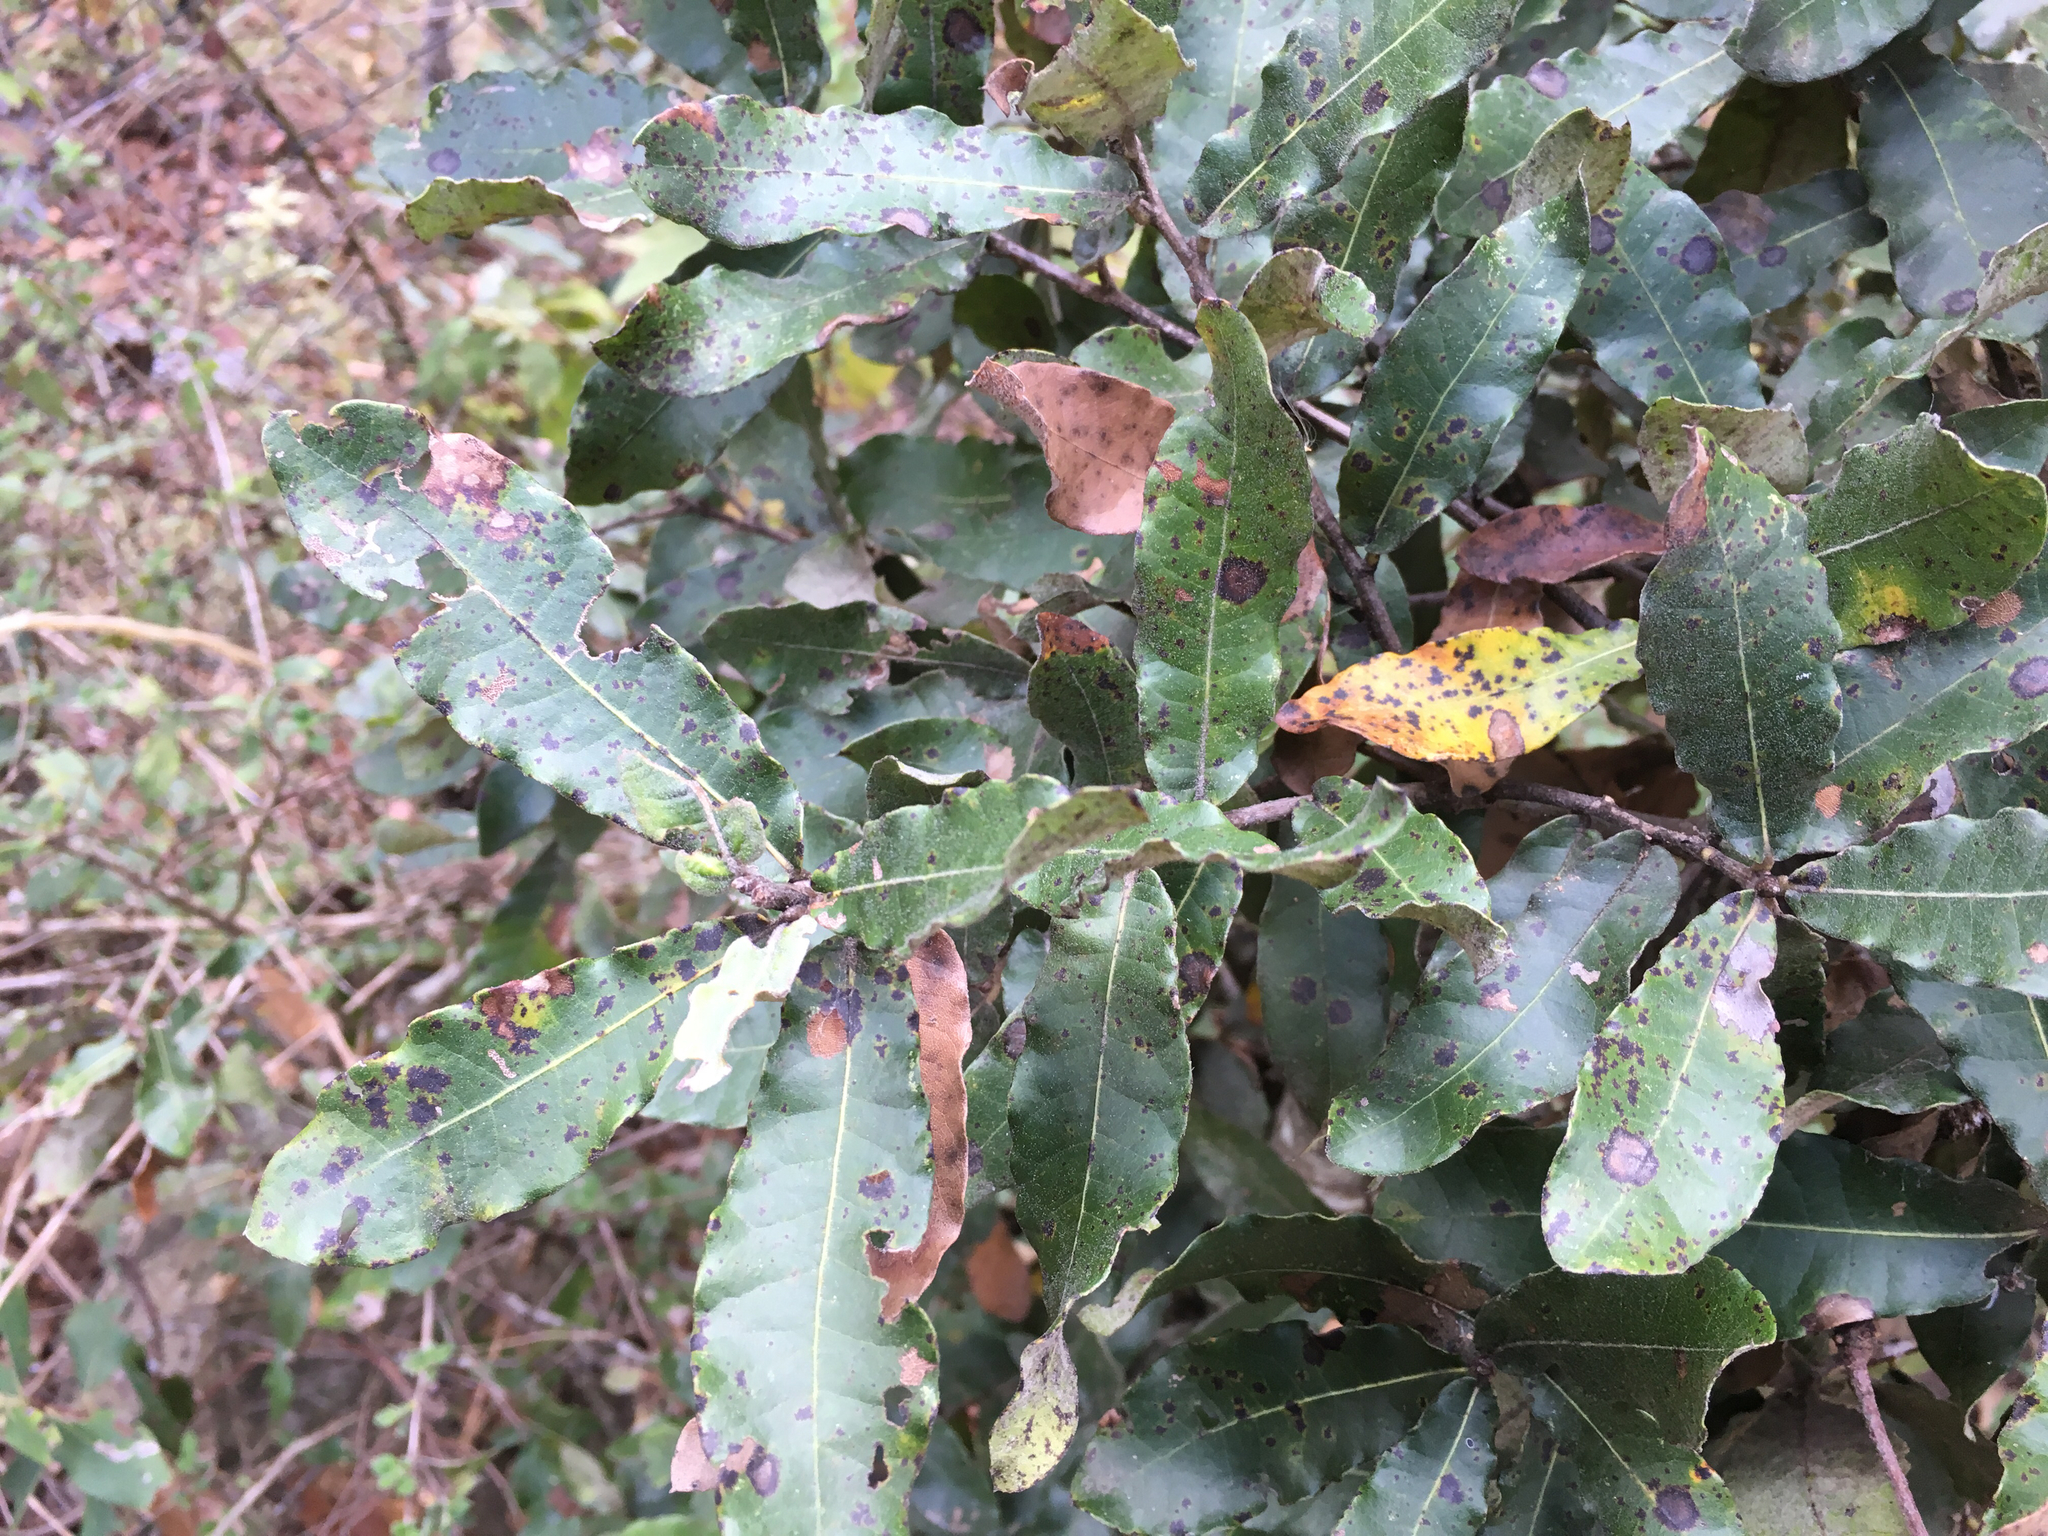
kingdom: Plantae
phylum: Tracheophyta
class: Magnoliopsida
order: Fagales
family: Fagaceae
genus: Quercus
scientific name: Quercus crispipilis
